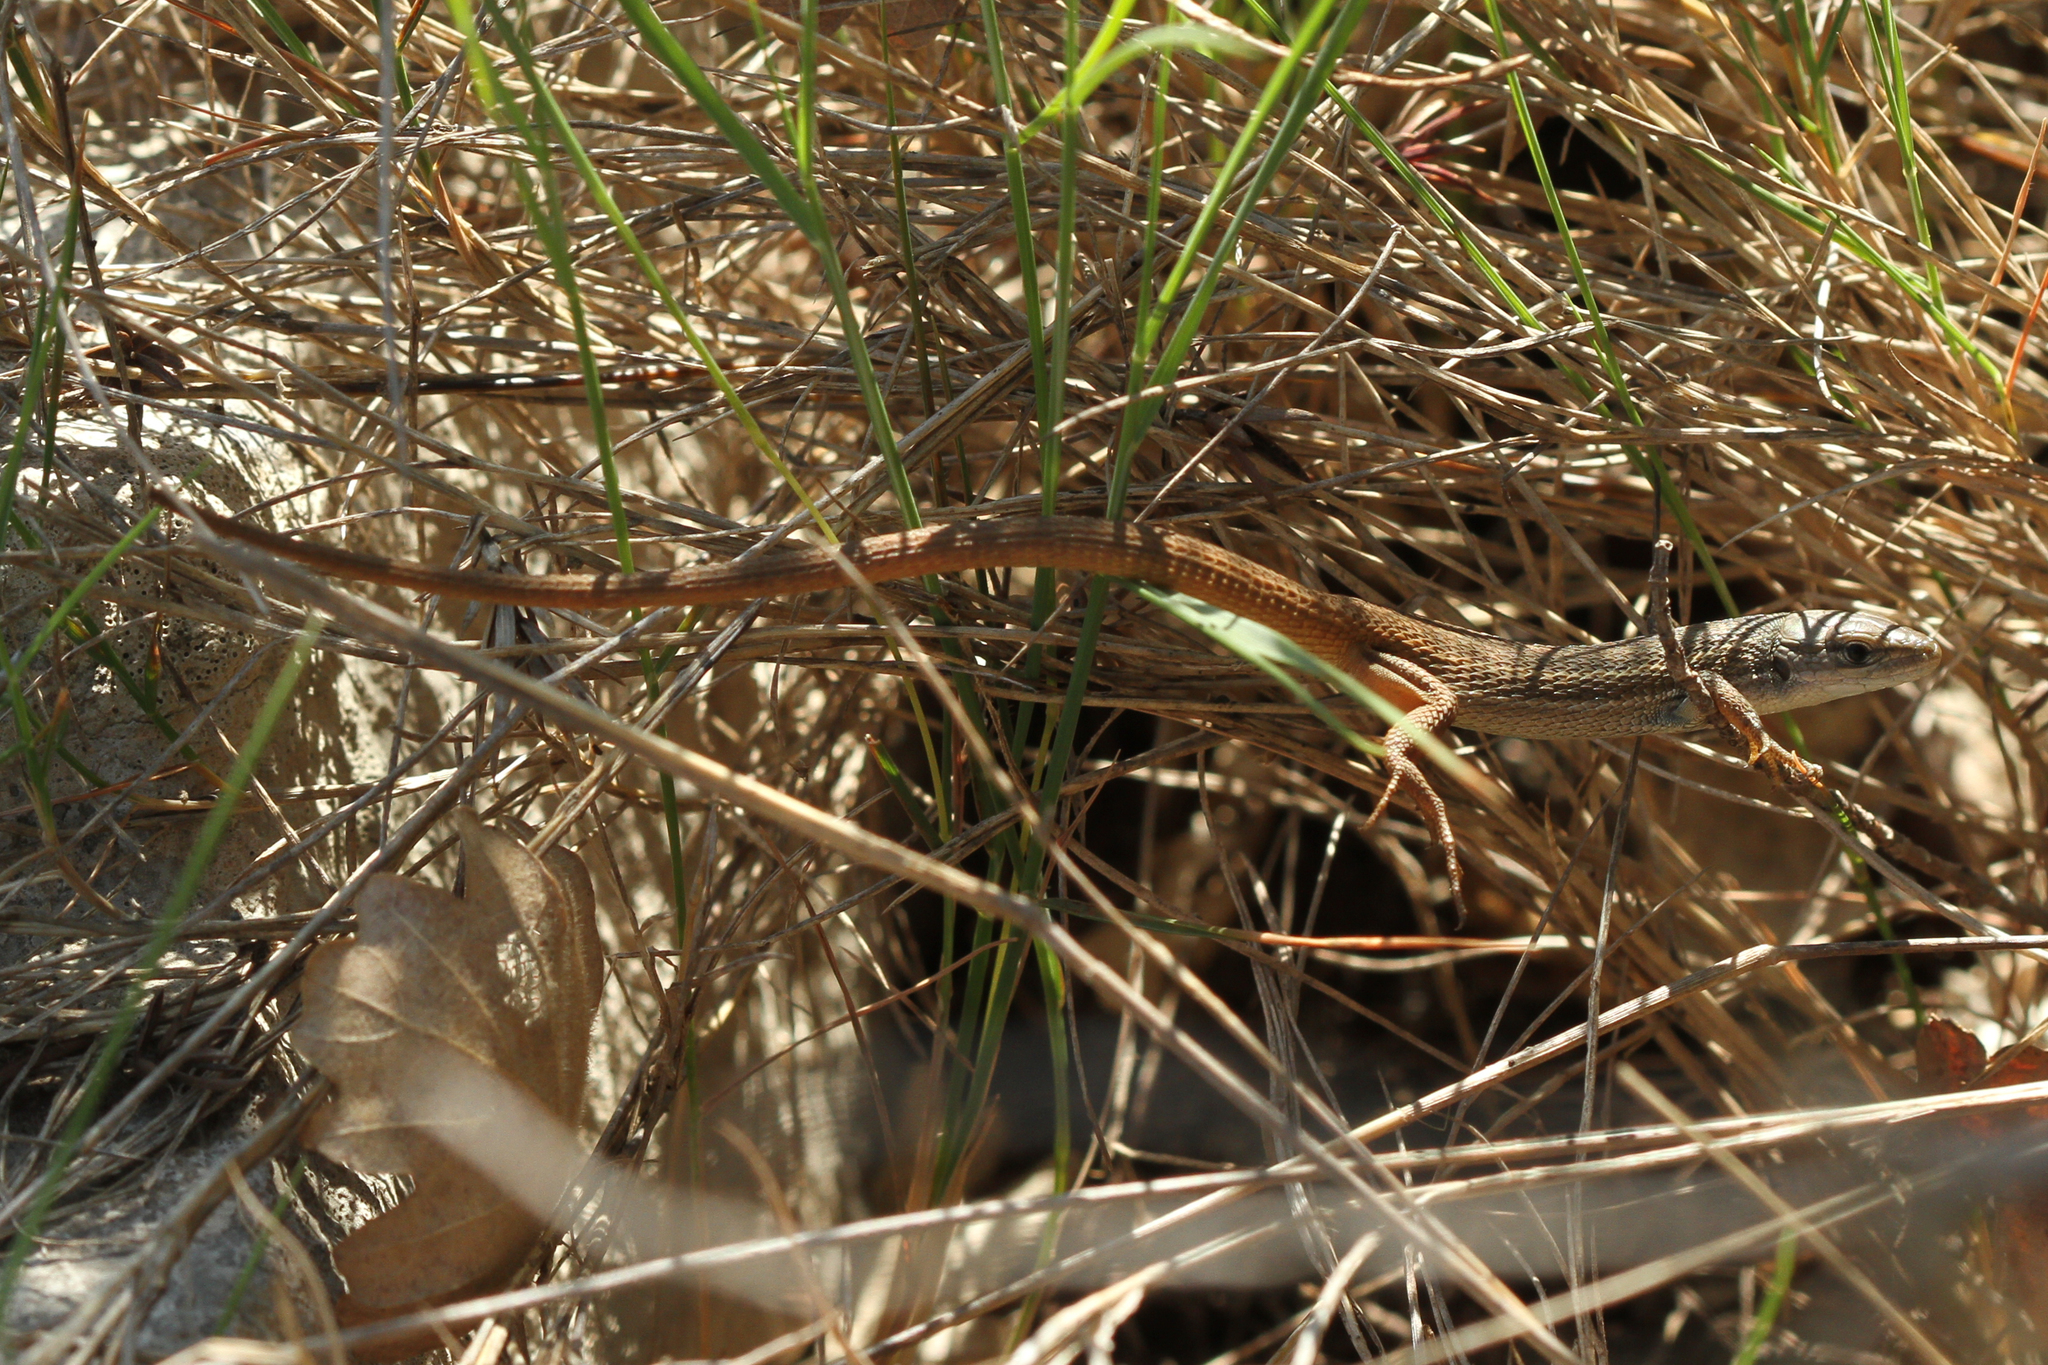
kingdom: Animalia
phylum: Chordata
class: Squamata
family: Lacertidae
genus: Psammodromus
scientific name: Psammodromus algirus
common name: Algerian psammodromus
